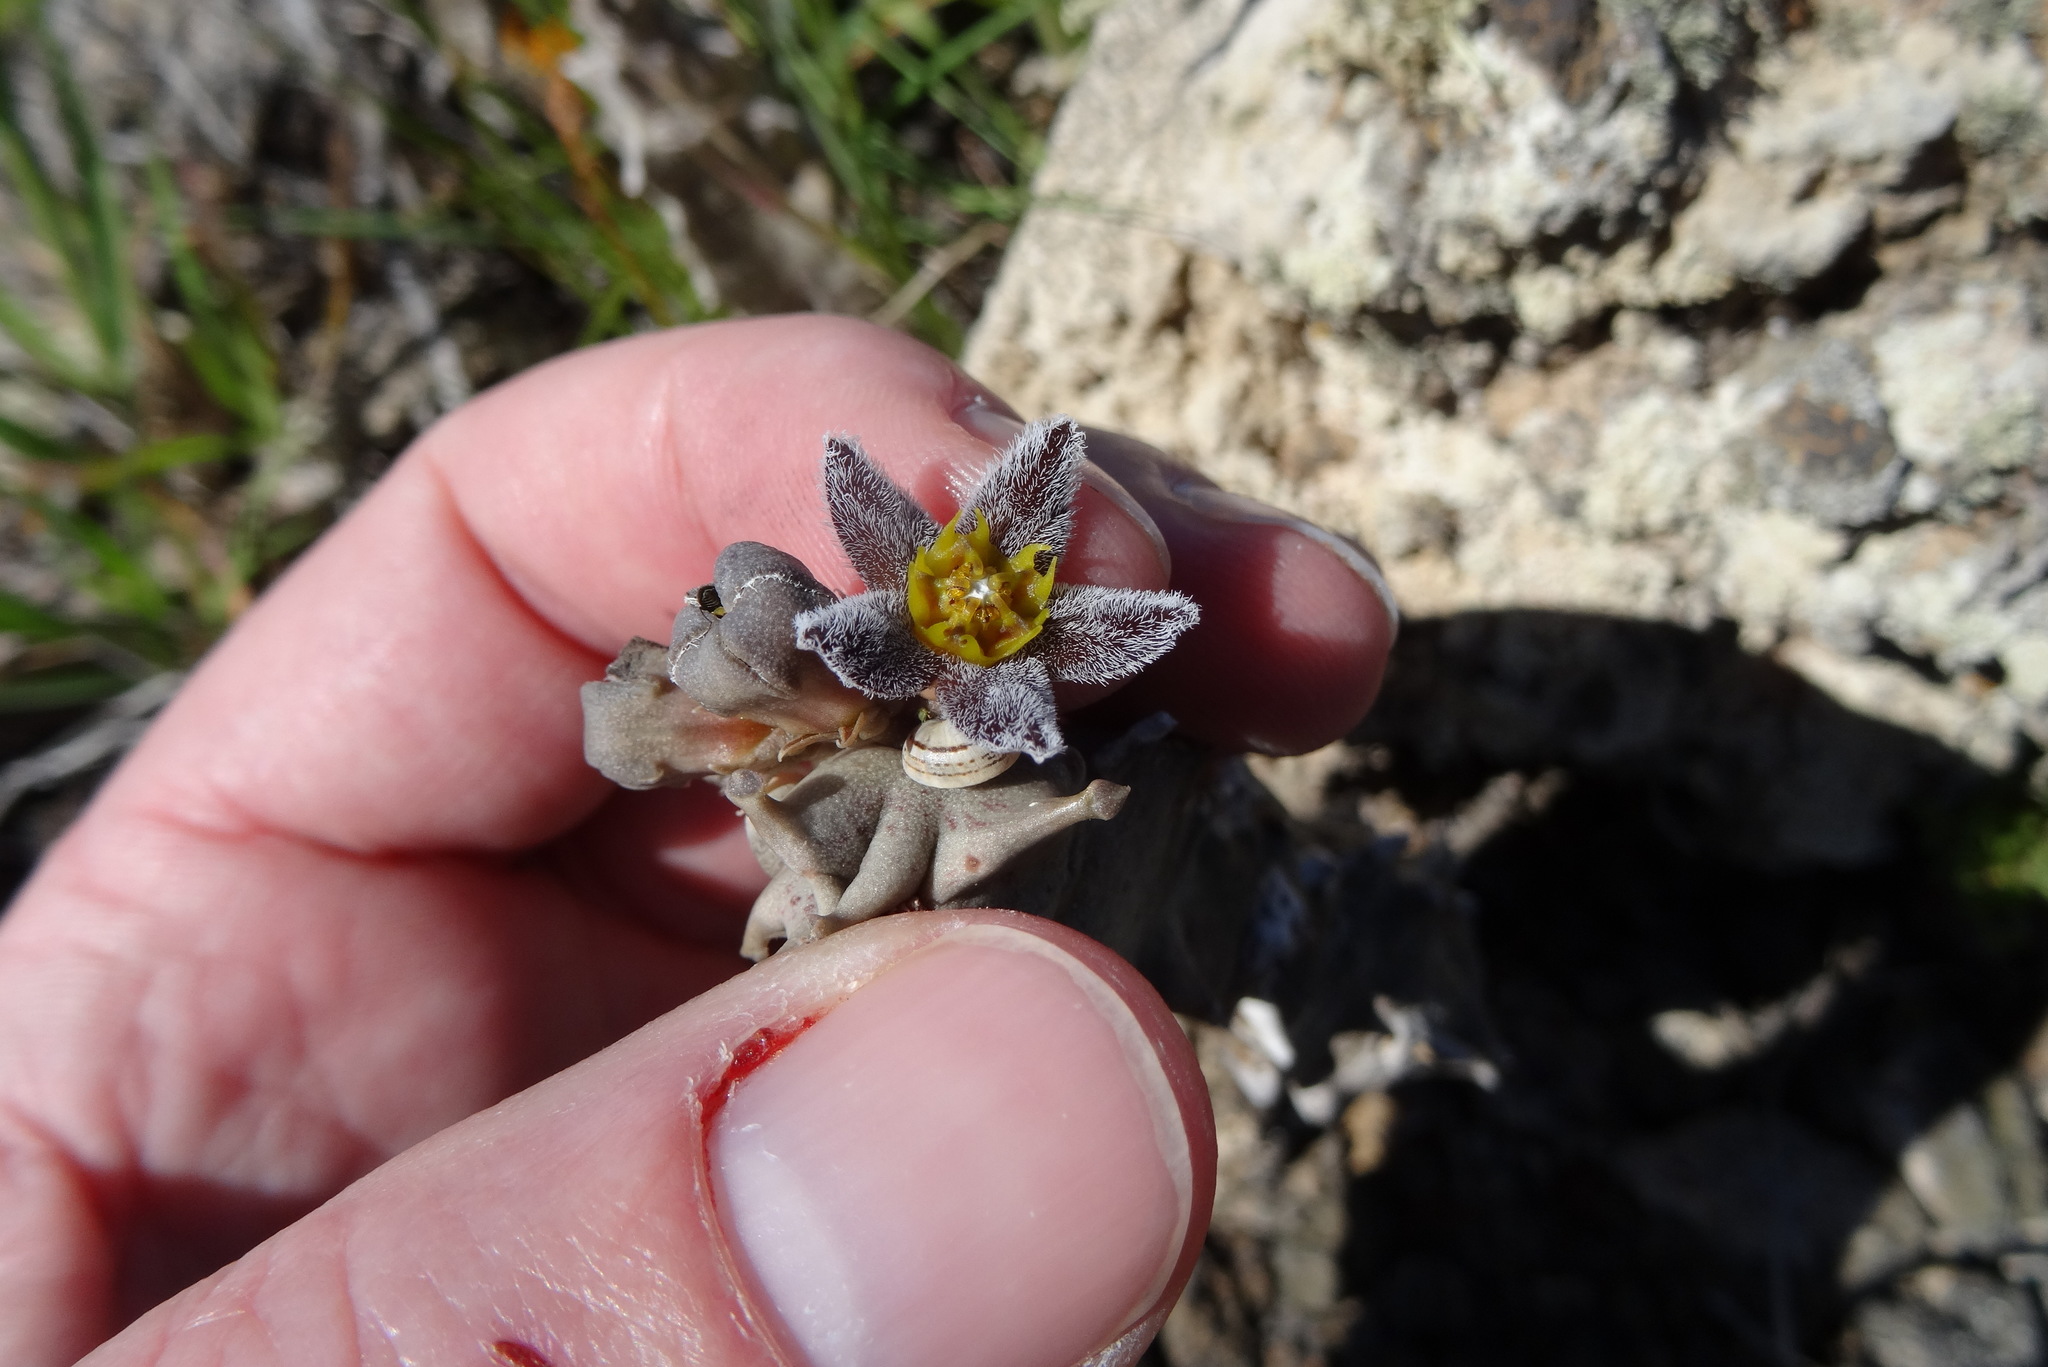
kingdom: Plantae
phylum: Tracheophyta
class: Magnoliopsida
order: Gentianales
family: Apocynaceae
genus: Ceropegia
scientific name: Ceropegia burchardii
